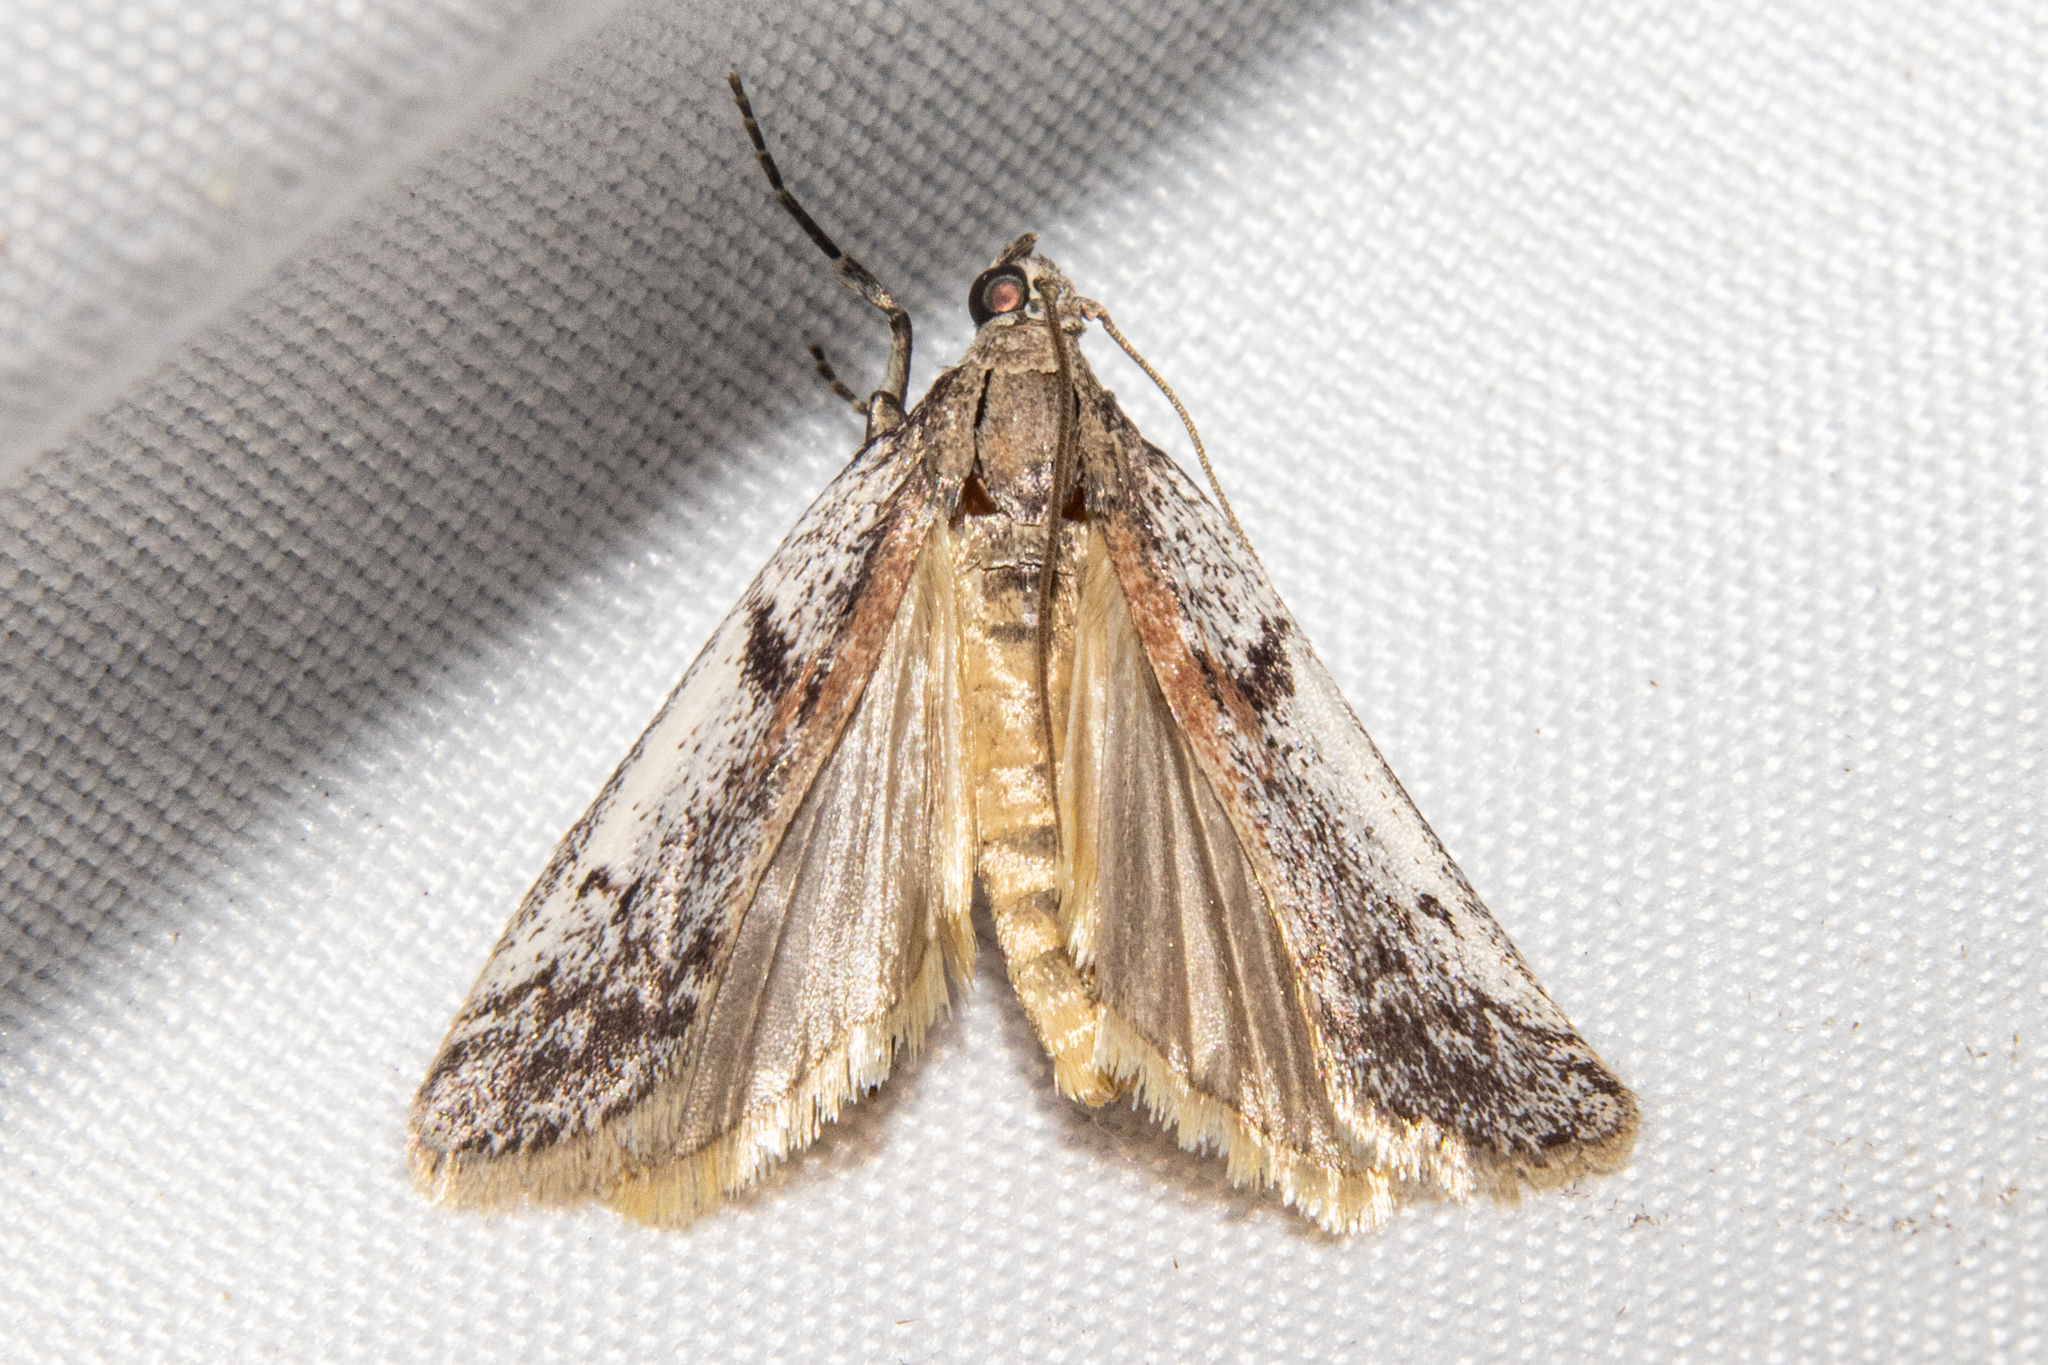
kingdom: Animalia
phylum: Arthropoda
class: Insecta
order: Lepidoptera
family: Pyralidae
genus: Patagoniodes
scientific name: Patagoniodes farinaria
